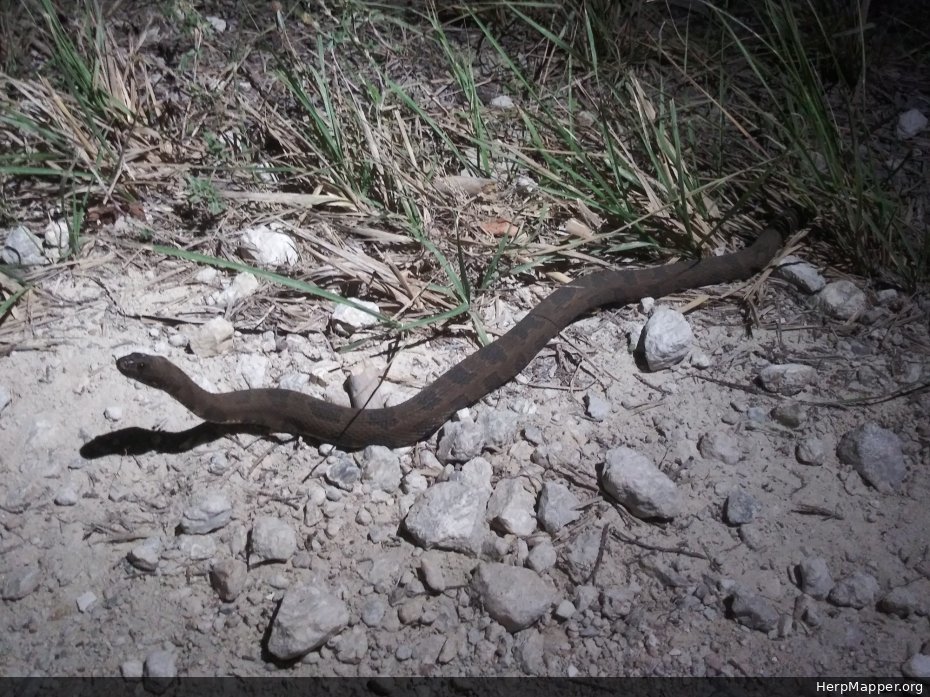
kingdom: Animalia
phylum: Chordata
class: Squamata
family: Colubridae
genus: Nerodia
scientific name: Nerodia taxispilota
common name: Brown water snake
